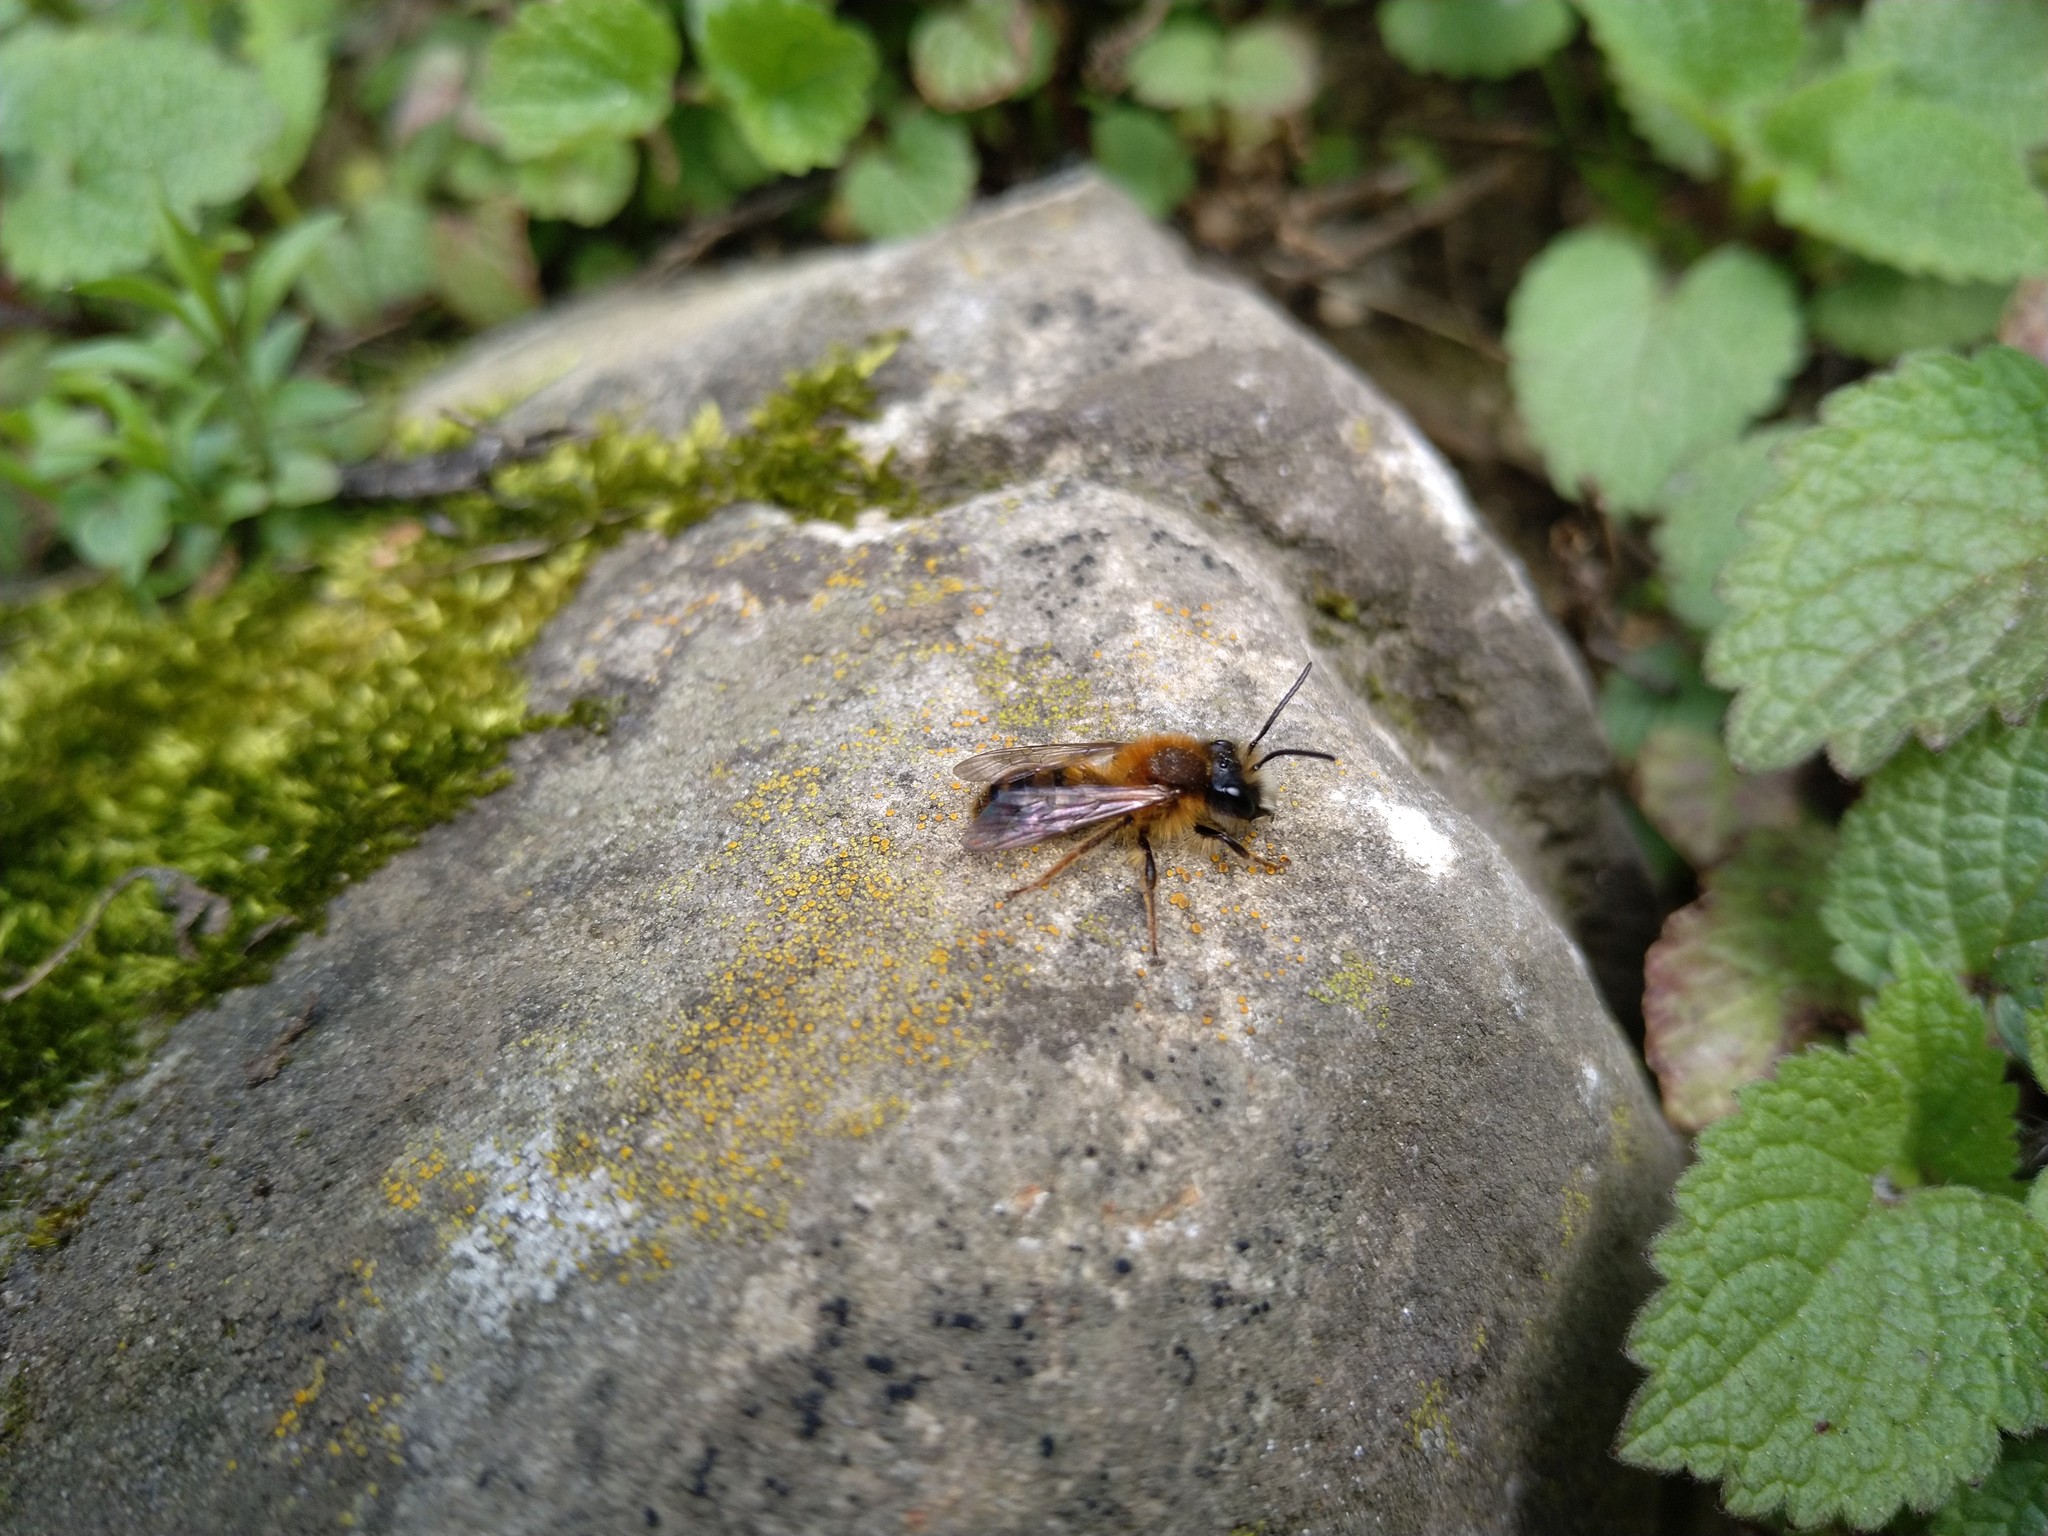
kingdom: Animalia
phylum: Arthropoda
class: Insecta
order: Hymenoptera
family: Andrenidae
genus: Andrena
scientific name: Andrena fulva
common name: Tawny mining bee
